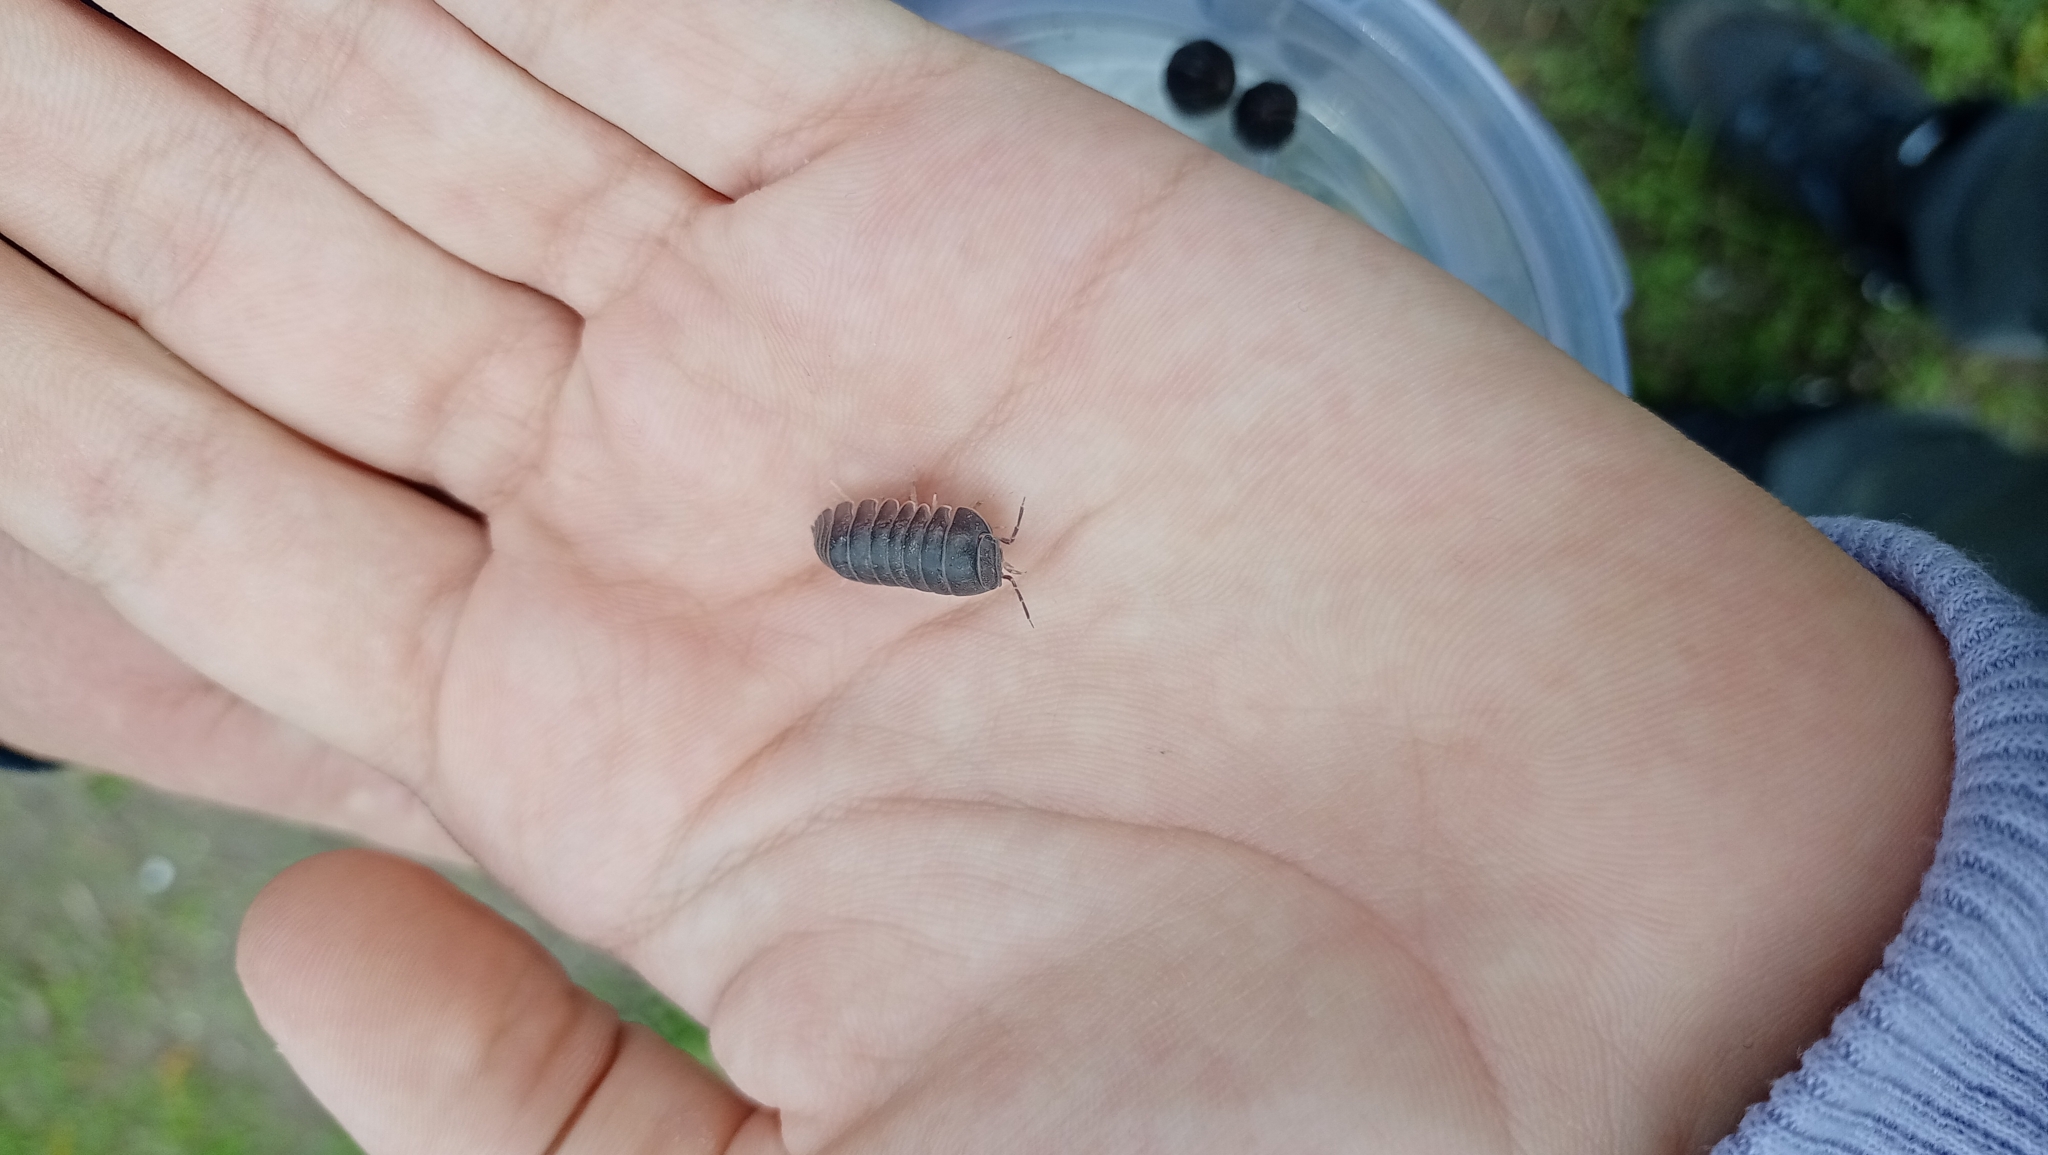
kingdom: Animalia
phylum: Arthropoda
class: Malacostraca
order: Isopoda
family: Armadillidae
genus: Armadillo
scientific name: Armadillo officinalis
